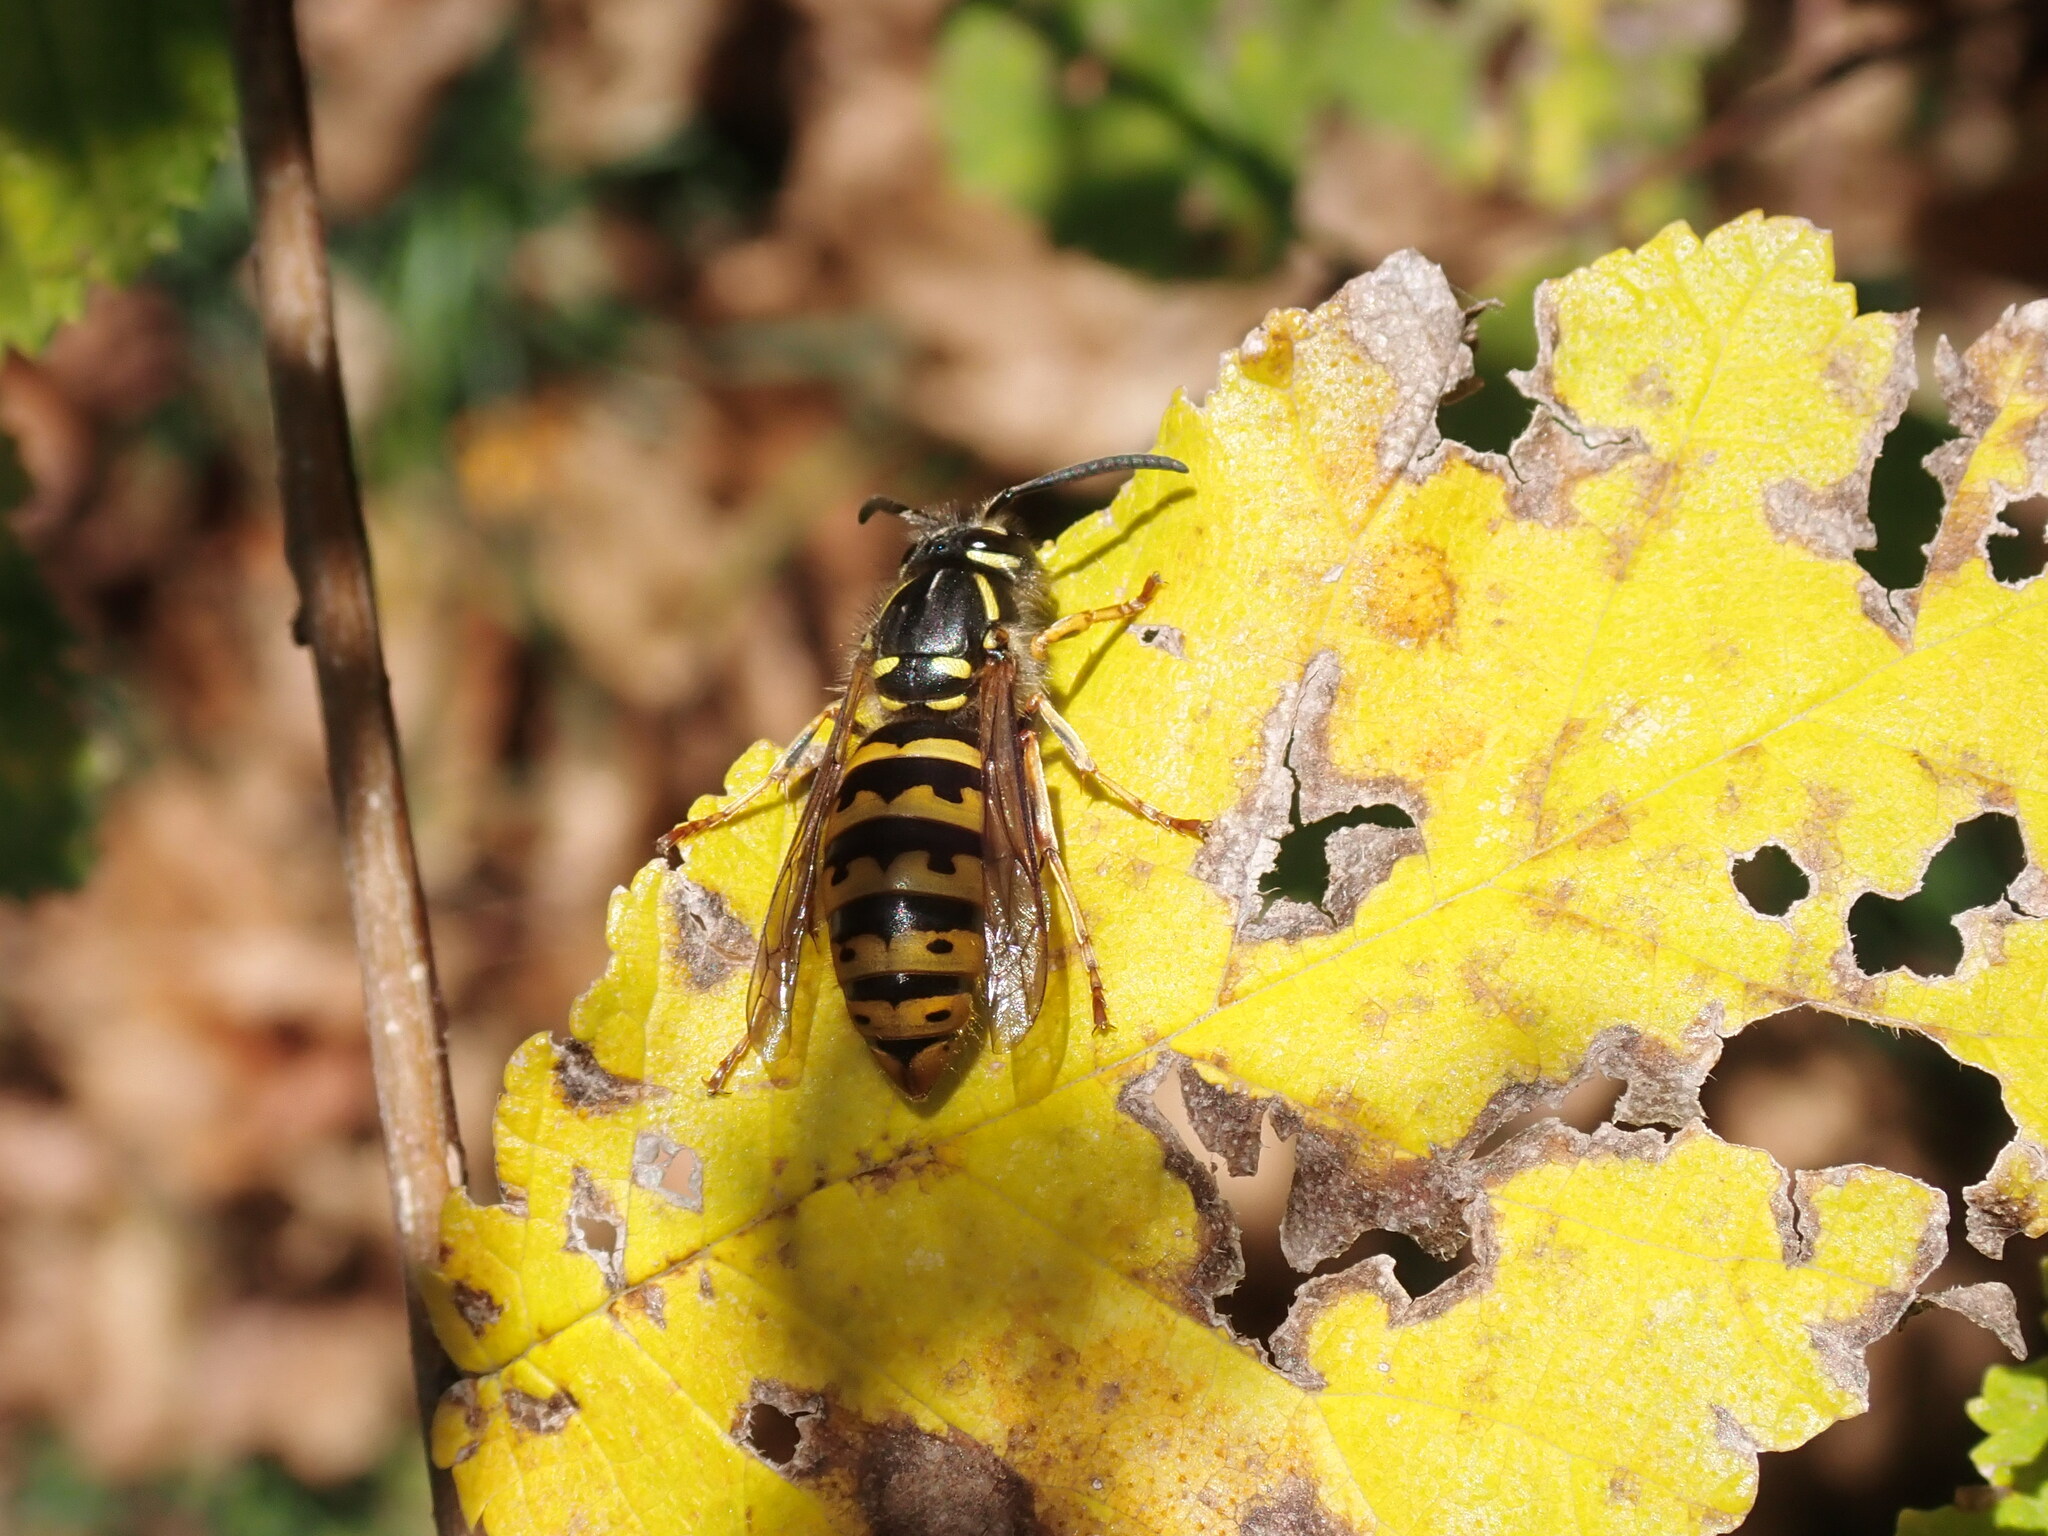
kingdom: Animalia
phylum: Arthropoda
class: Insecta
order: Hymenoptera
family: Vespidae
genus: Vespula
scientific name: Vespula vulgaris
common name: Common wasp
